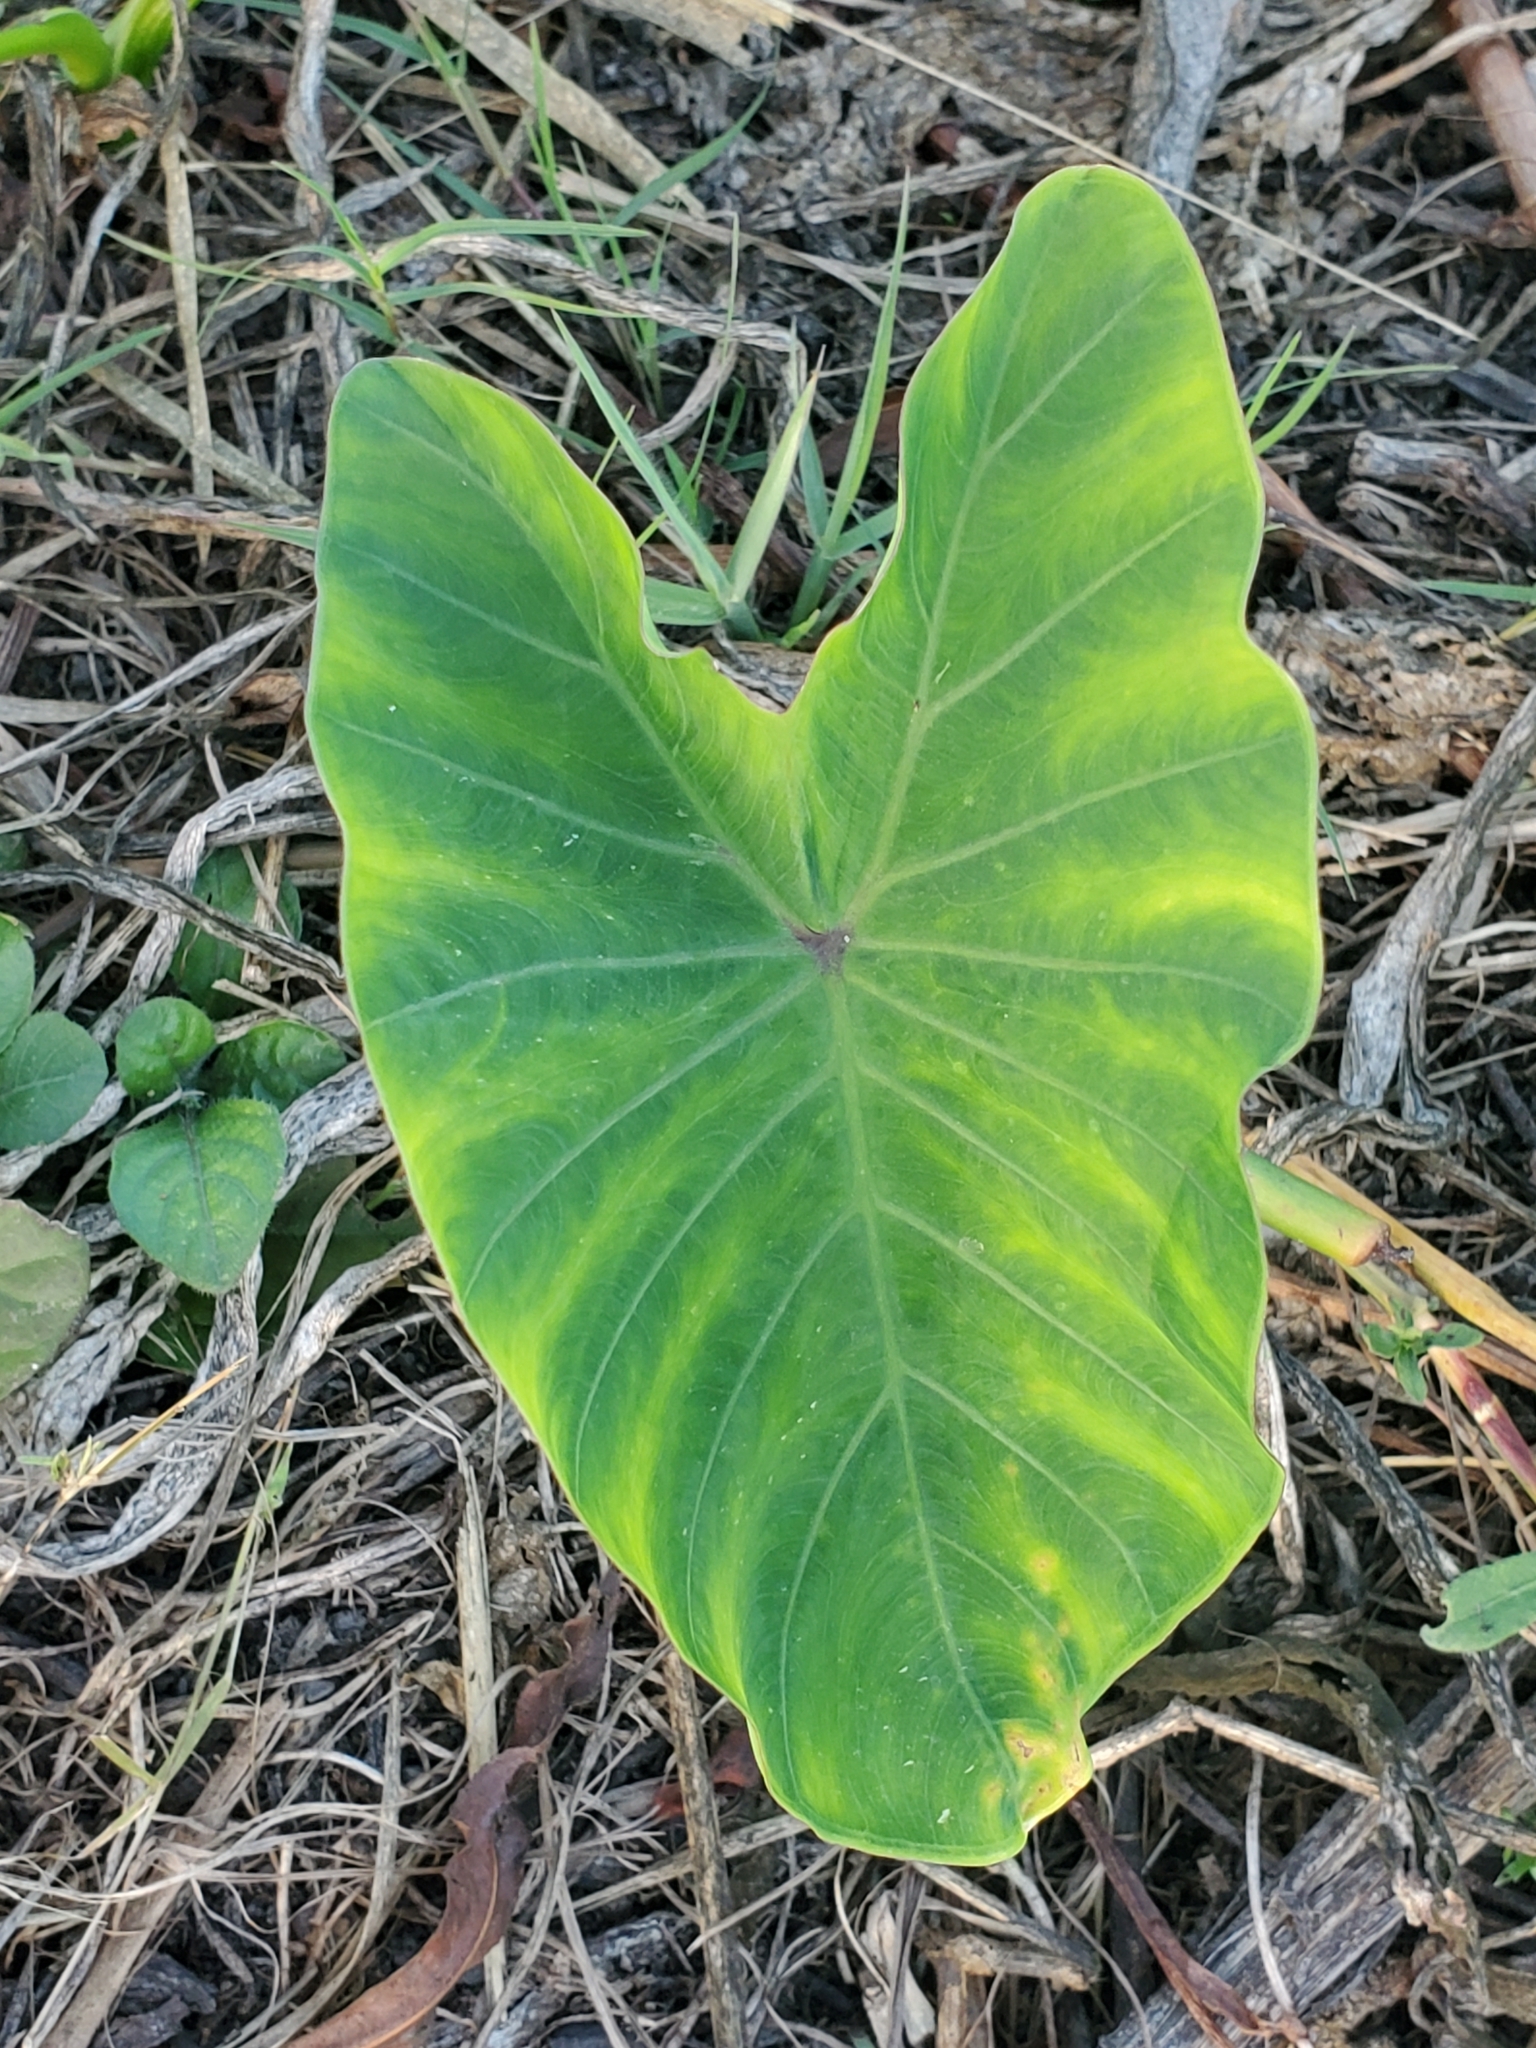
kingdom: Plantae
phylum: Tracheophyta
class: Liliopsida
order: Alismatales
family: Araceae
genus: Colocasia
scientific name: Colocasia esculenta
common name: Taro
